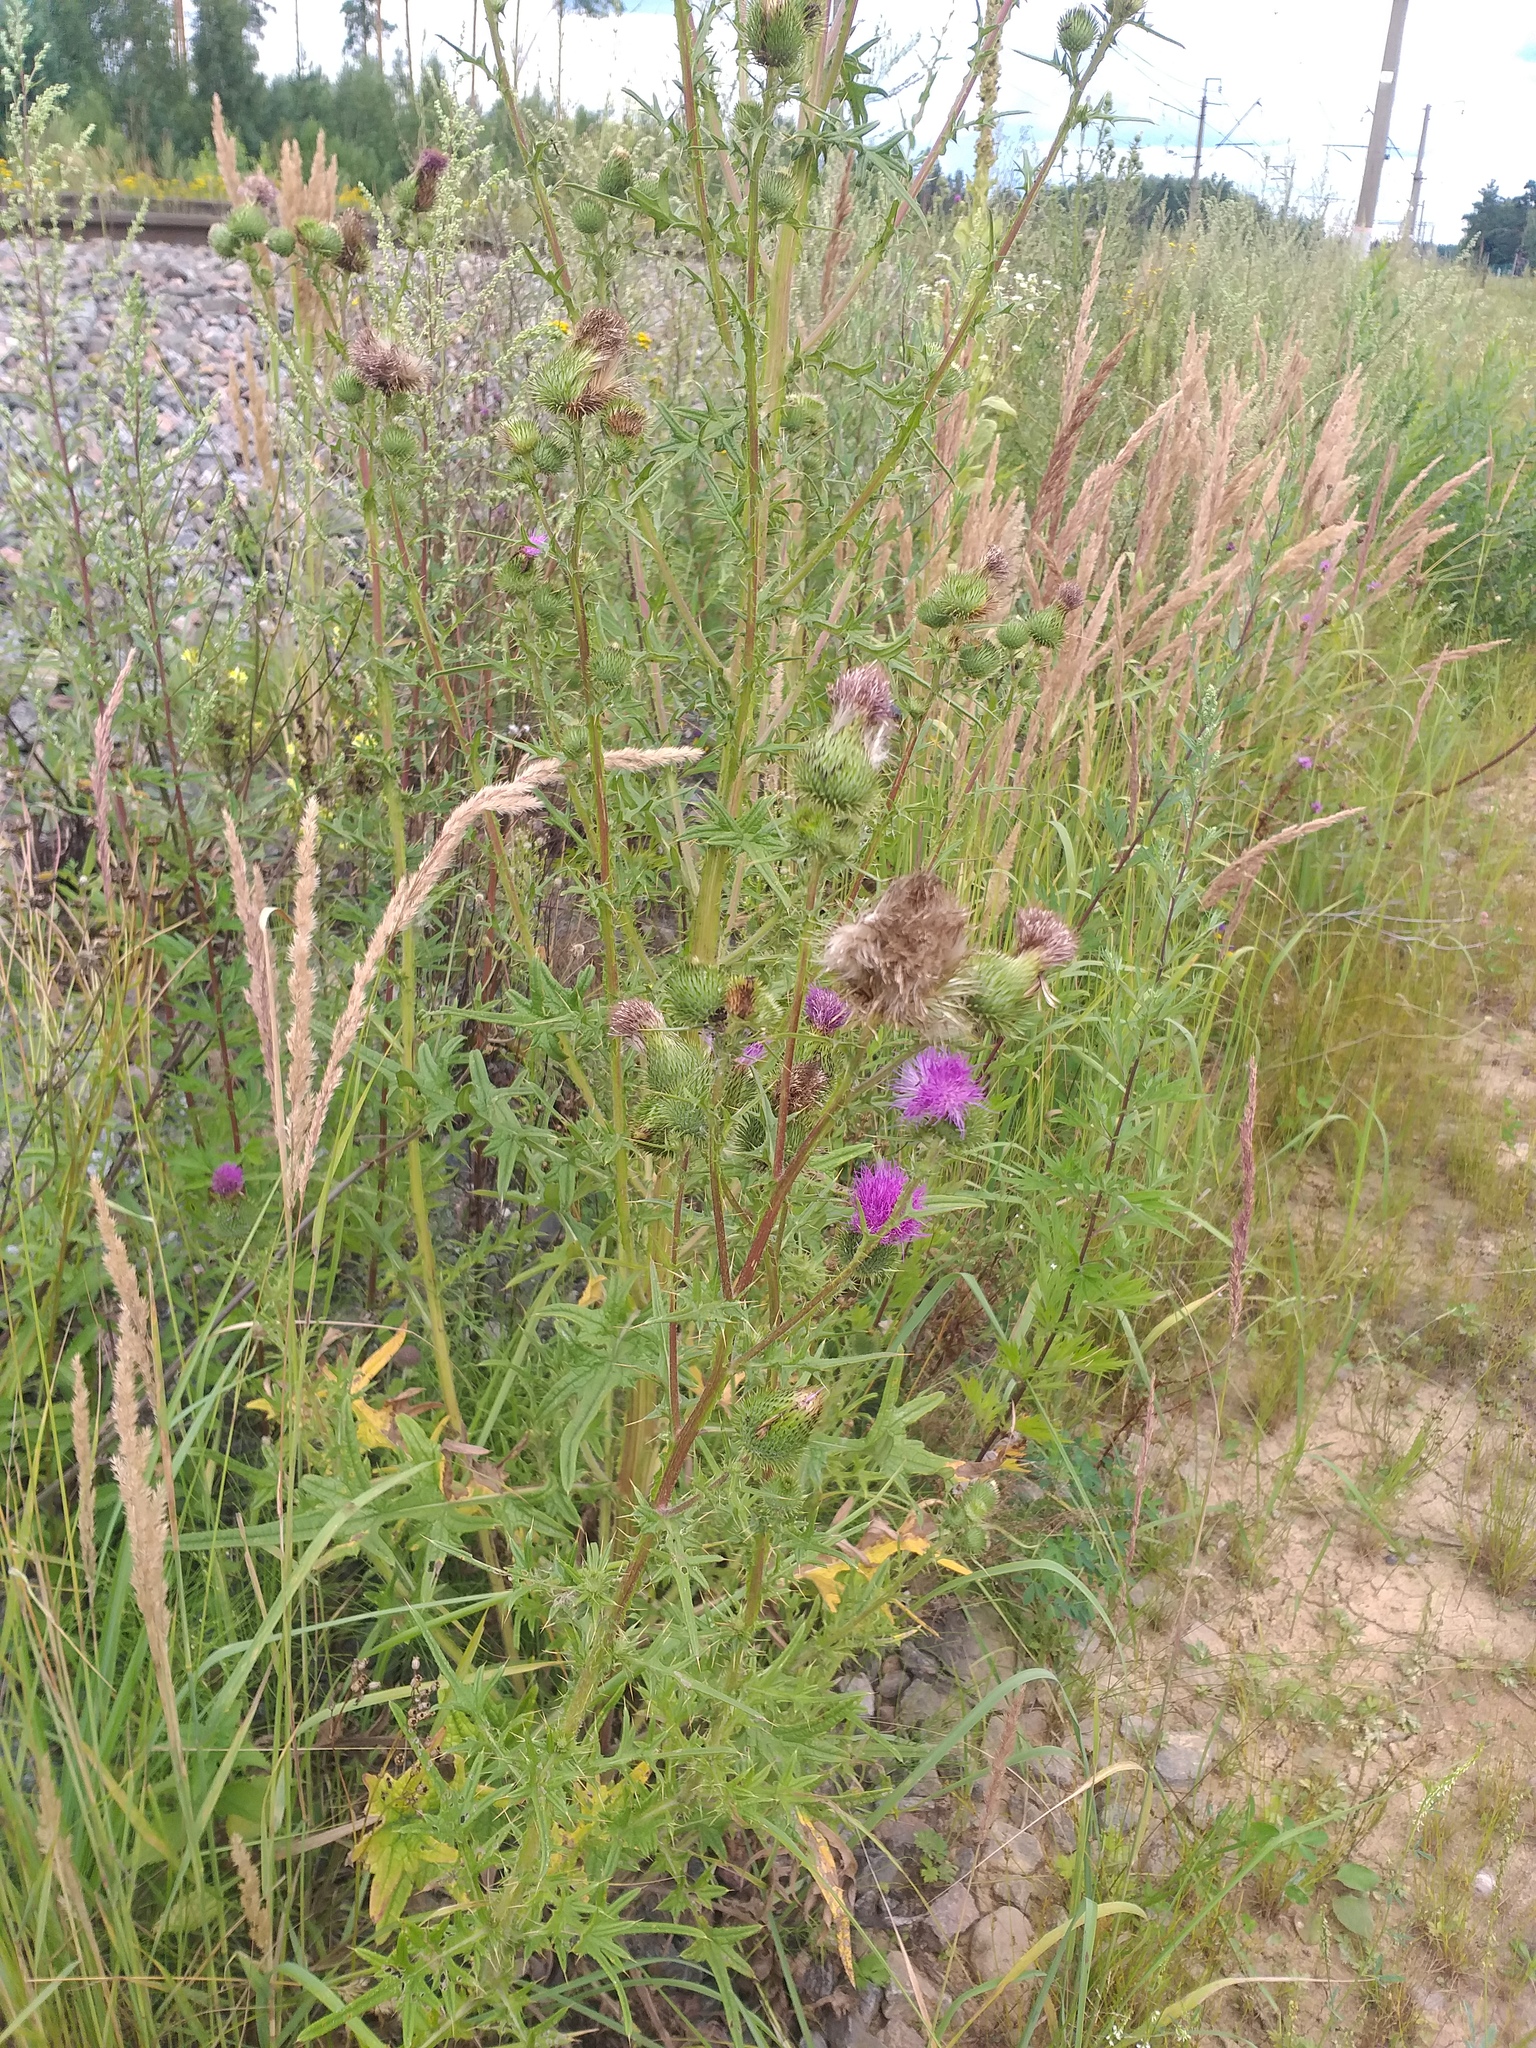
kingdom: Plantae
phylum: Tracheophyta
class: Magnoliopsida
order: Asterales
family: Asteraceae
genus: Cirsium
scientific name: Cirsium vulgare
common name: Bull thistle
